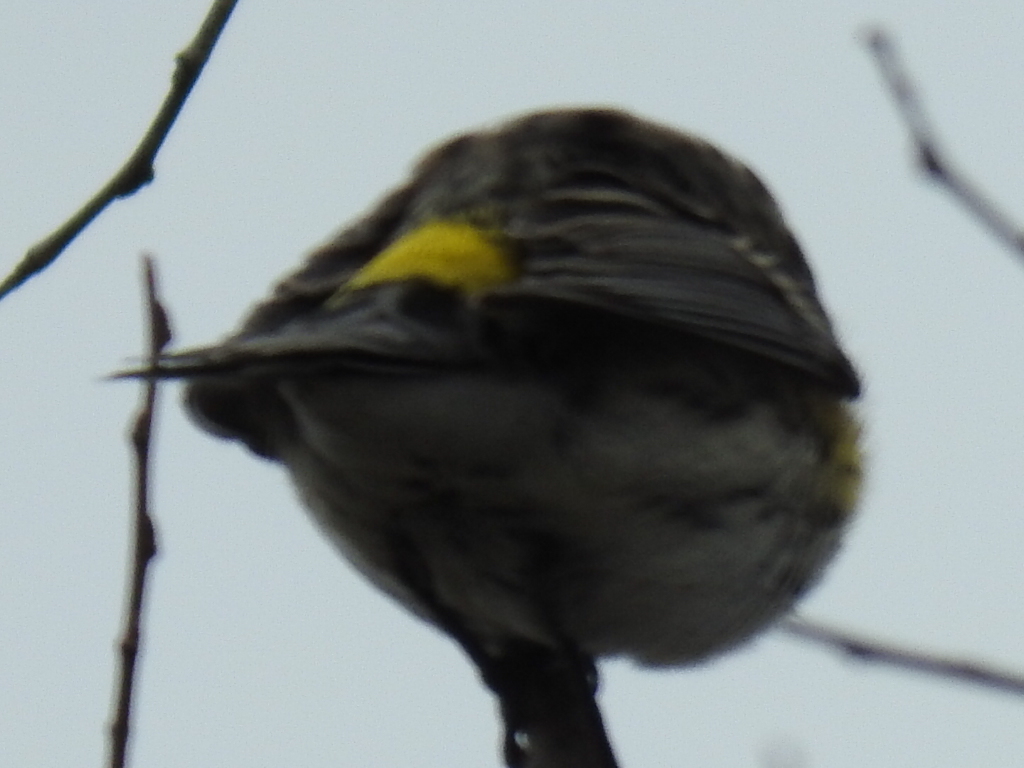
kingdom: Animalia
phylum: Chordata
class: Aves
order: Passeriformes
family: Parulidae
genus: Setophaga
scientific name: Setophaga coronata
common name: Myrtle warbler
